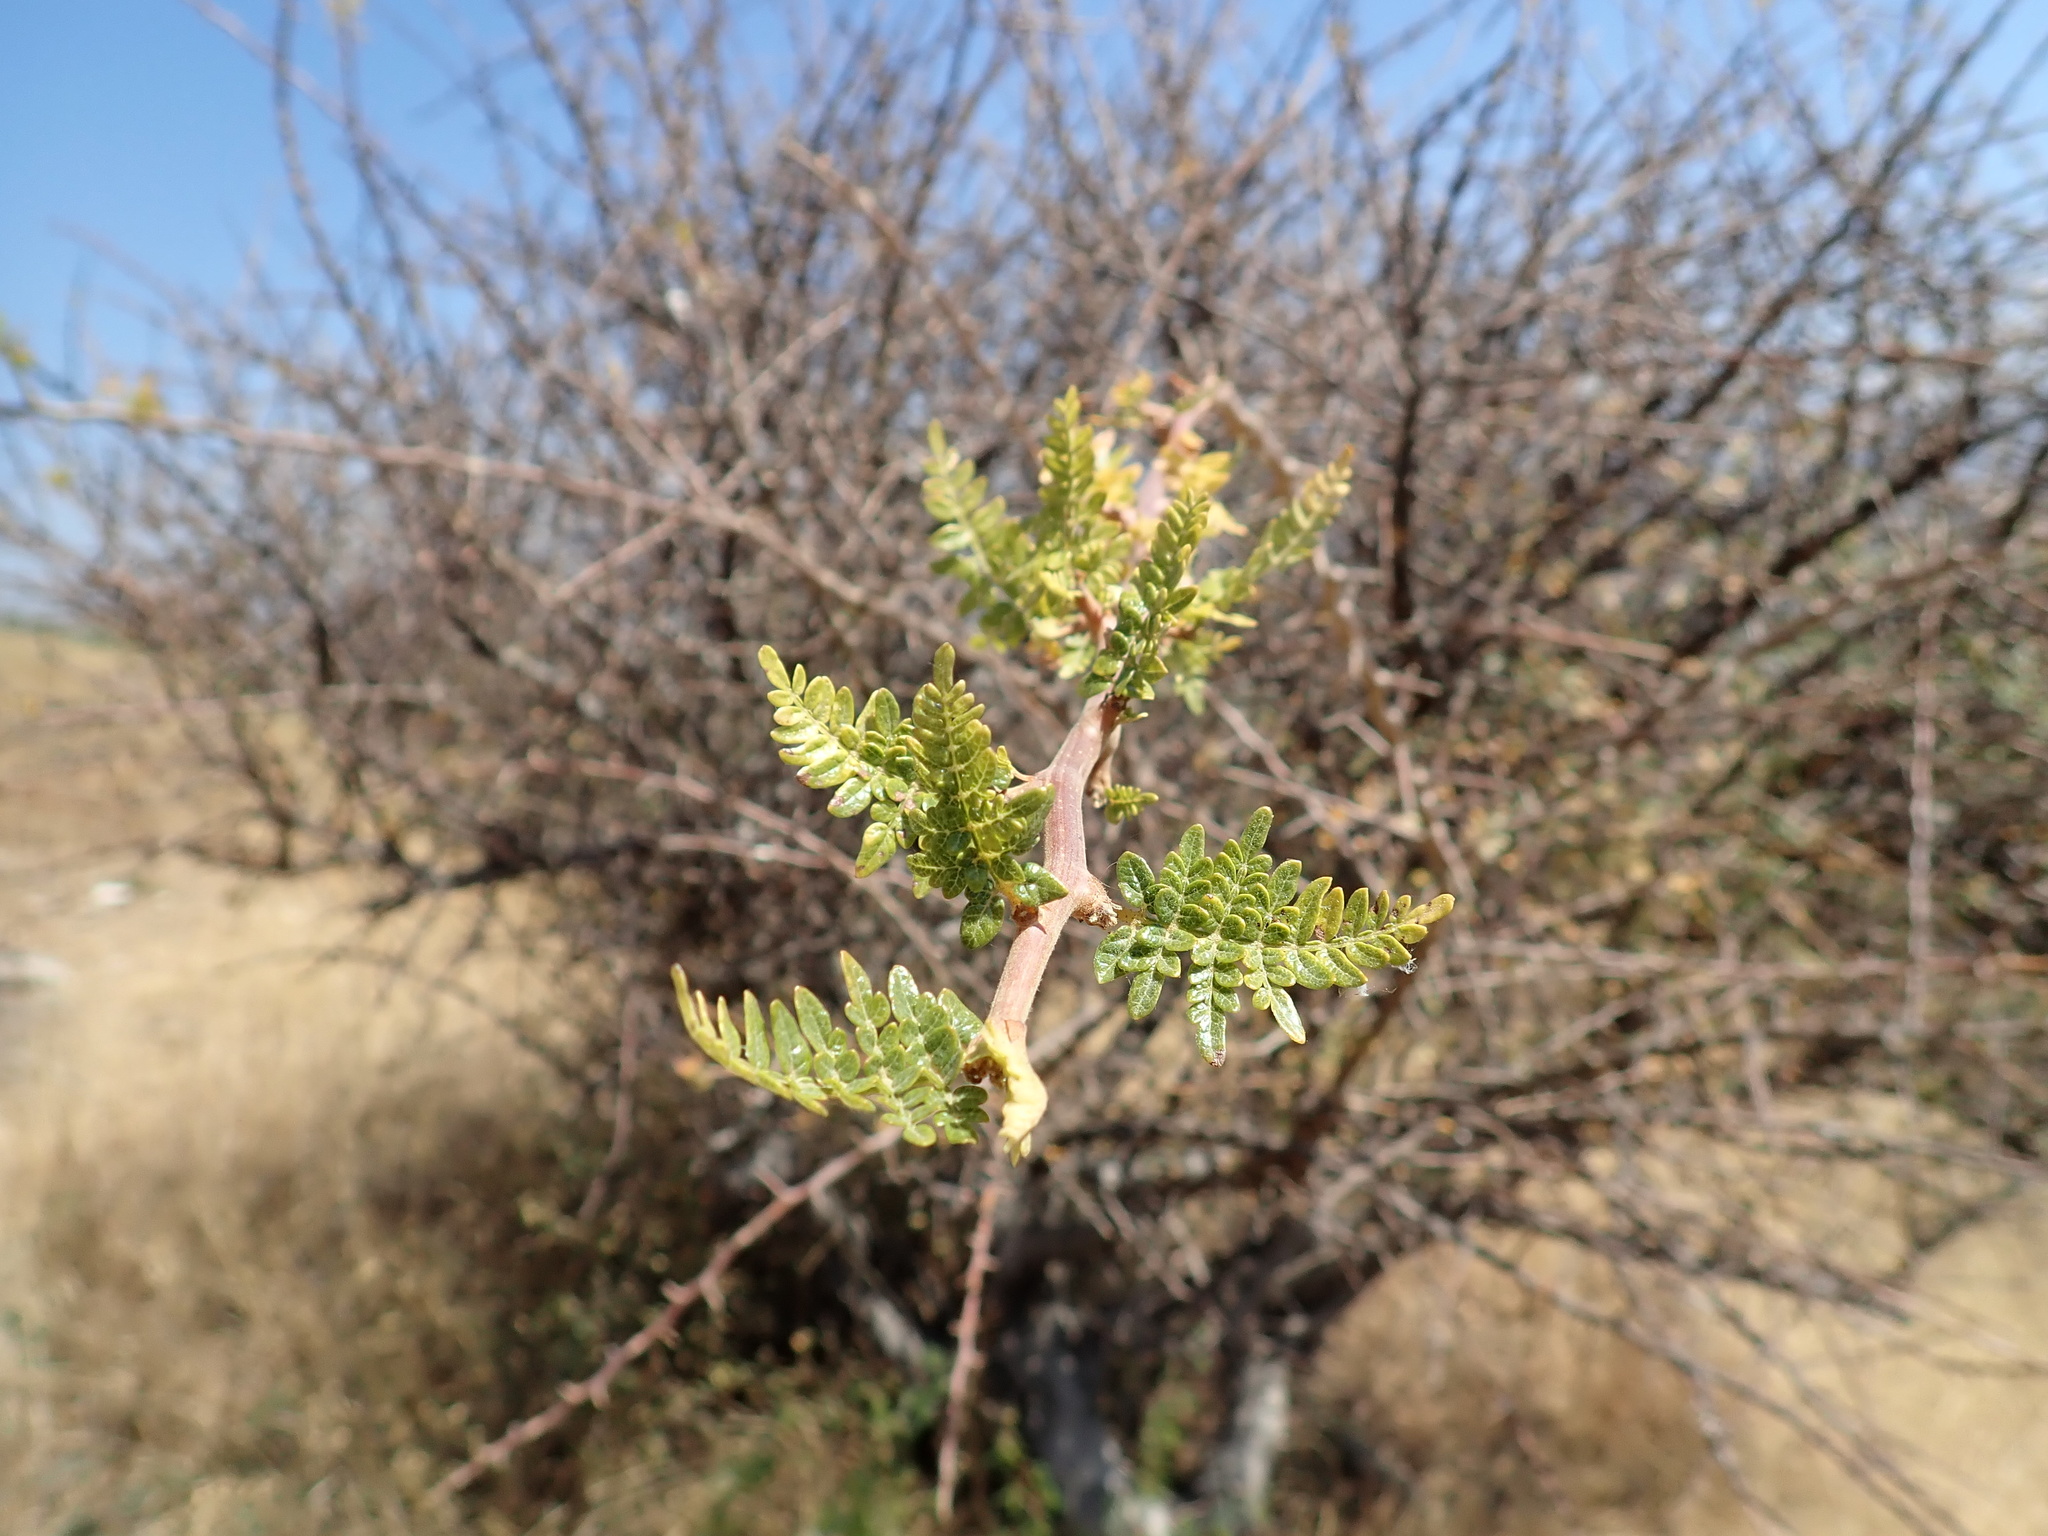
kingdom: Plantae
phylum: Tracheophyta
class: Magnoliopsida
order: Sapindales
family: Burseraceae
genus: Bursera
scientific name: Bursera bipinnata
